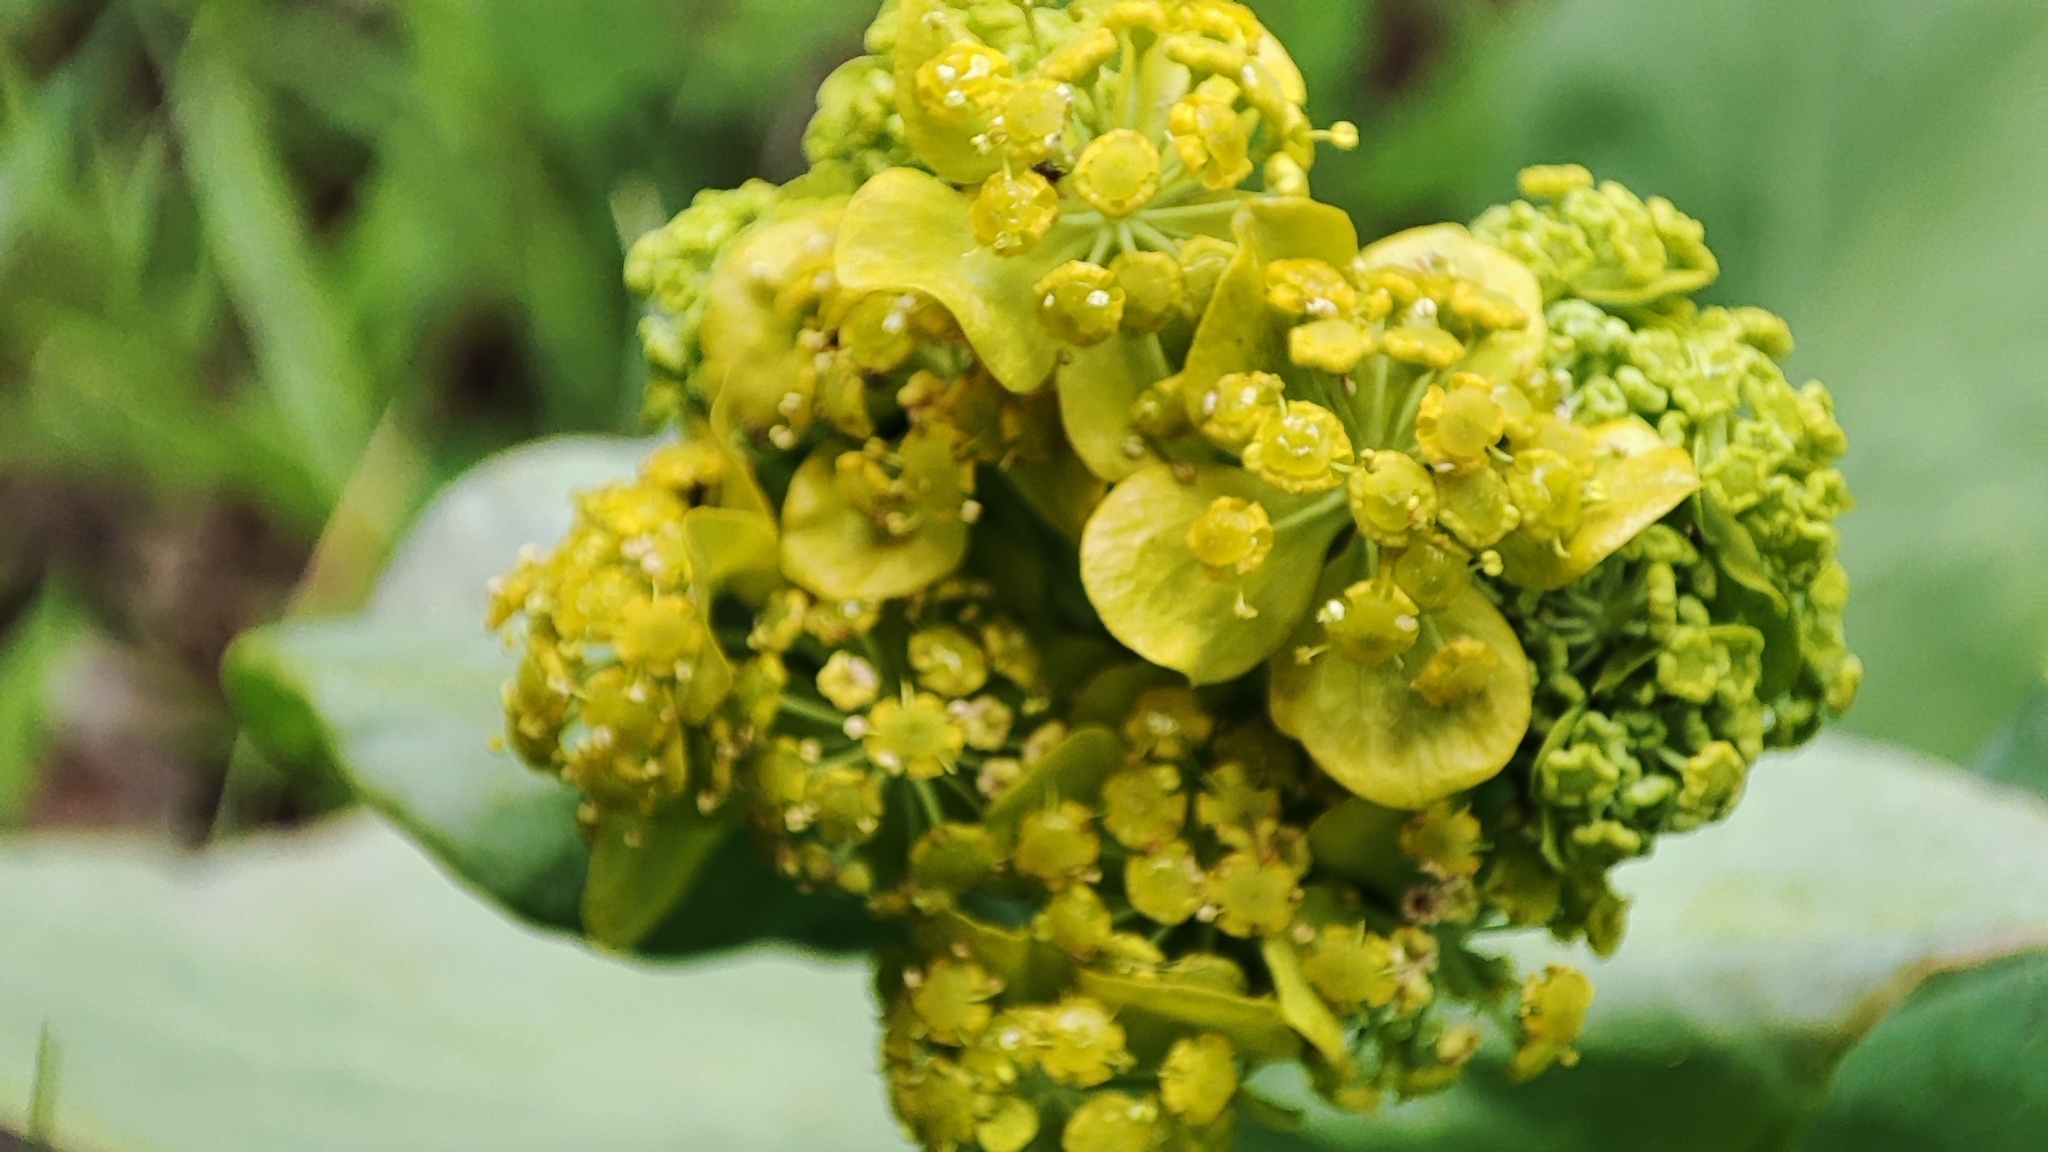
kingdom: Plantae
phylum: Tracheophyta
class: Magnoliopsida
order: Apiales
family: Apiaceae
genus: Bupleurum
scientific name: Bupleurum aureum
